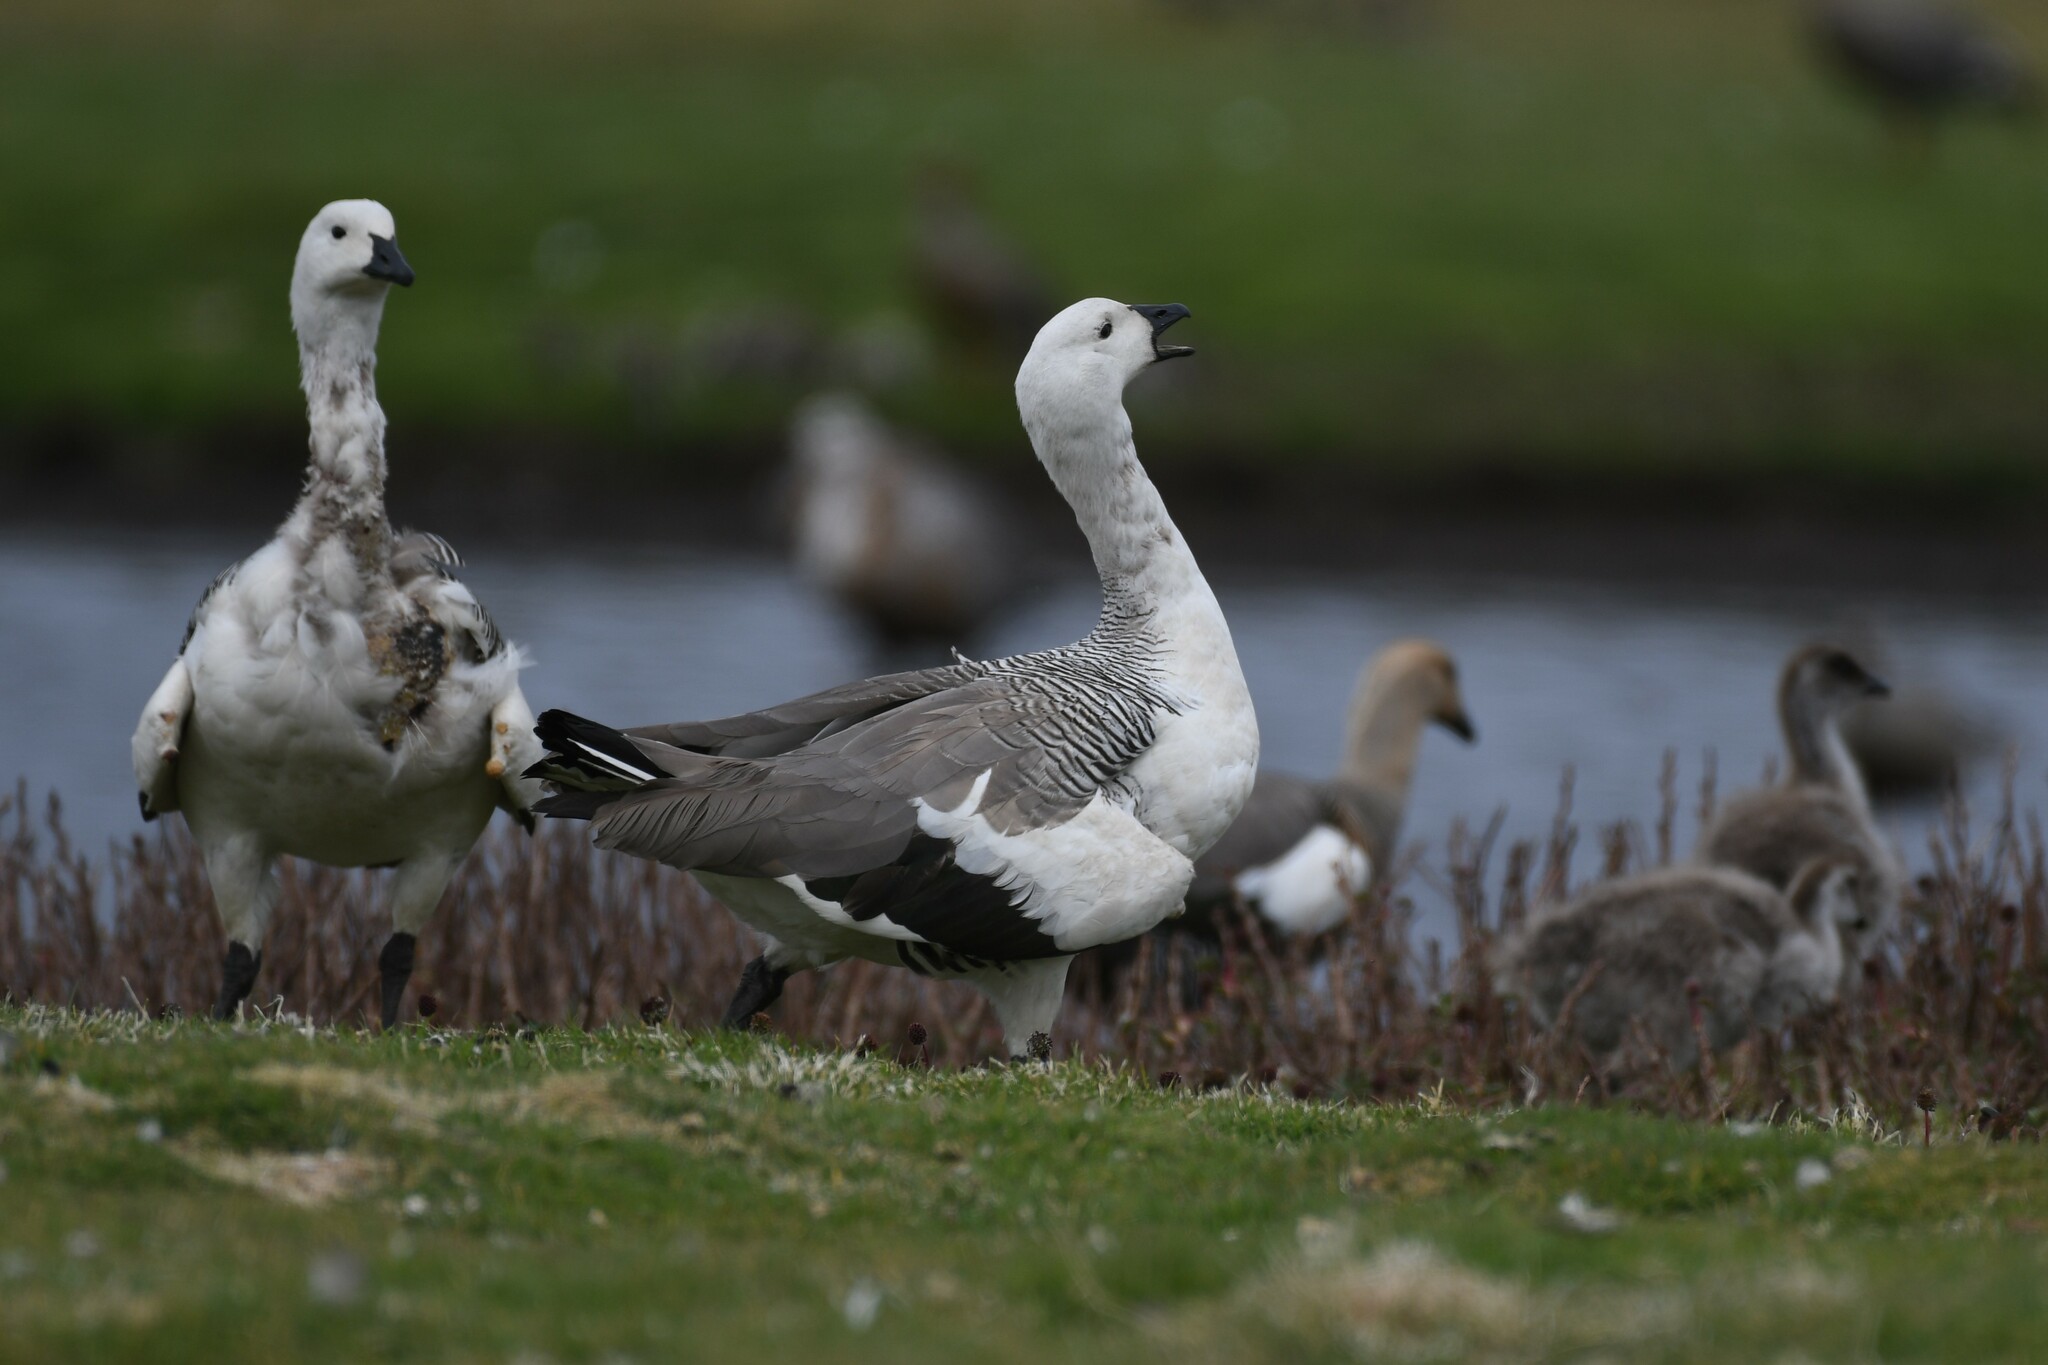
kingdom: Animalia
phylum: Chordata
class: Aves
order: Anseriformes
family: Anatidae
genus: Chloephaga
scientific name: Chloephaga picta
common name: Upland goose
